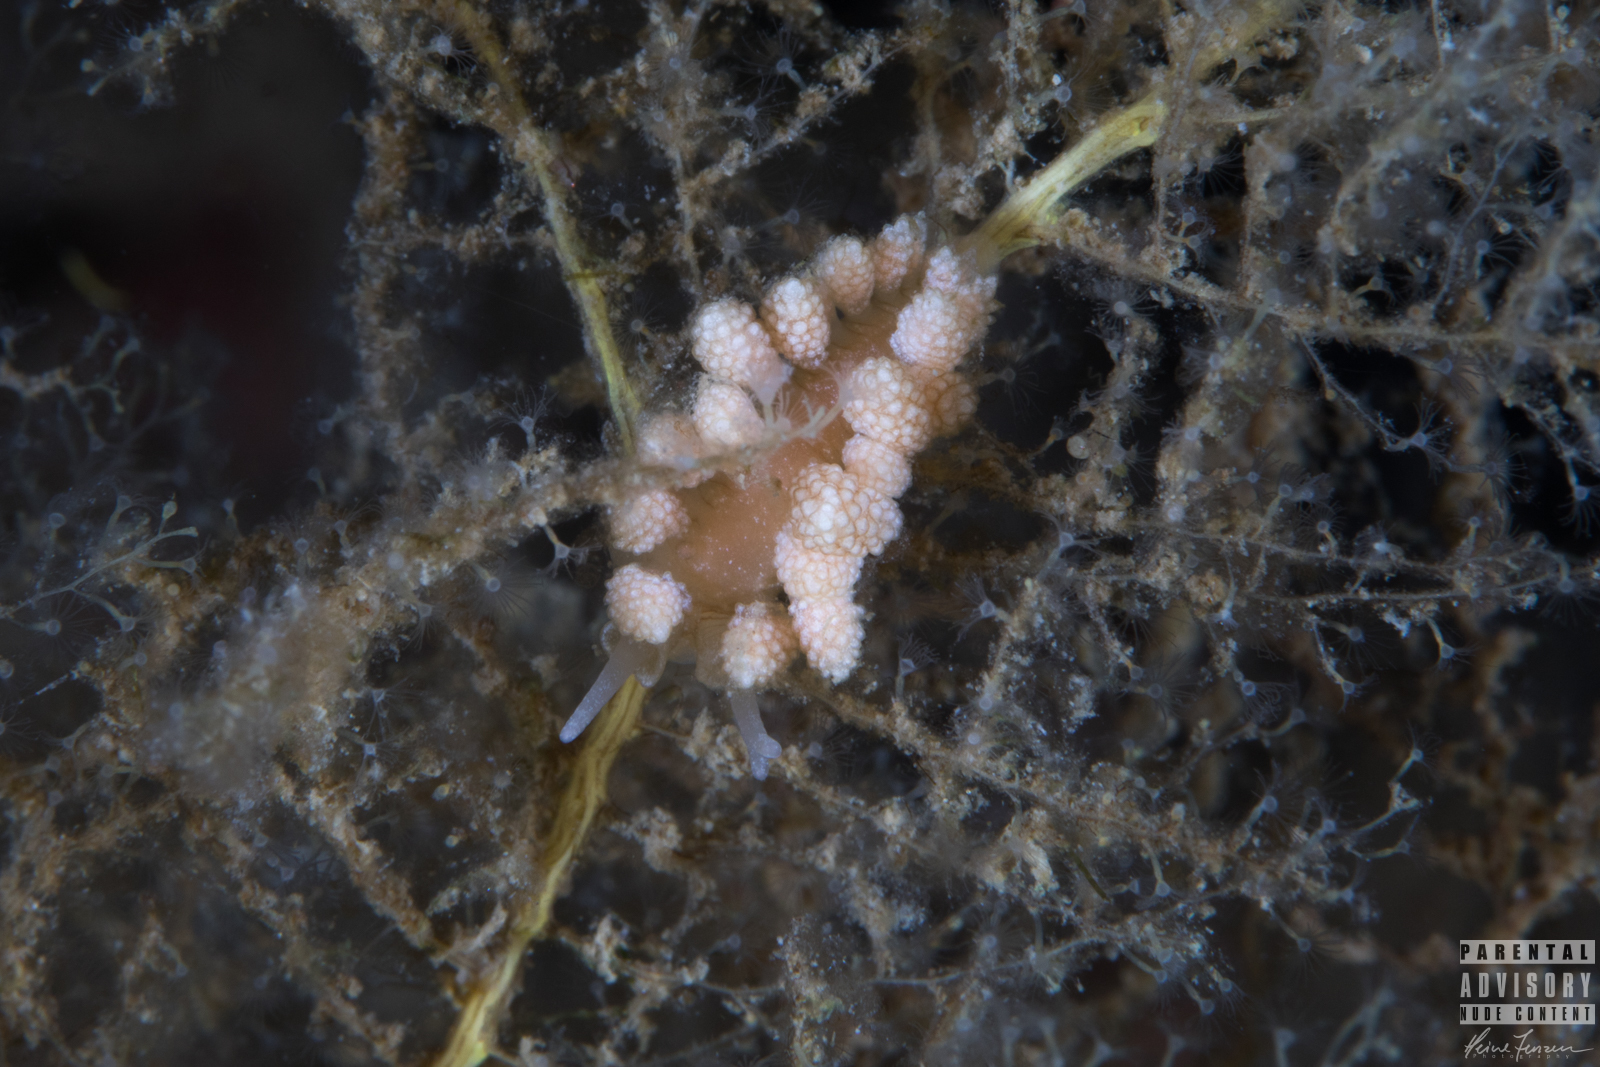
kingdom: Animalia
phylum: Mollusca
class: Gastropoda
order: Nudibranchia
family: Dotidae
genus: Doto
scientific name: Doto fragilis
